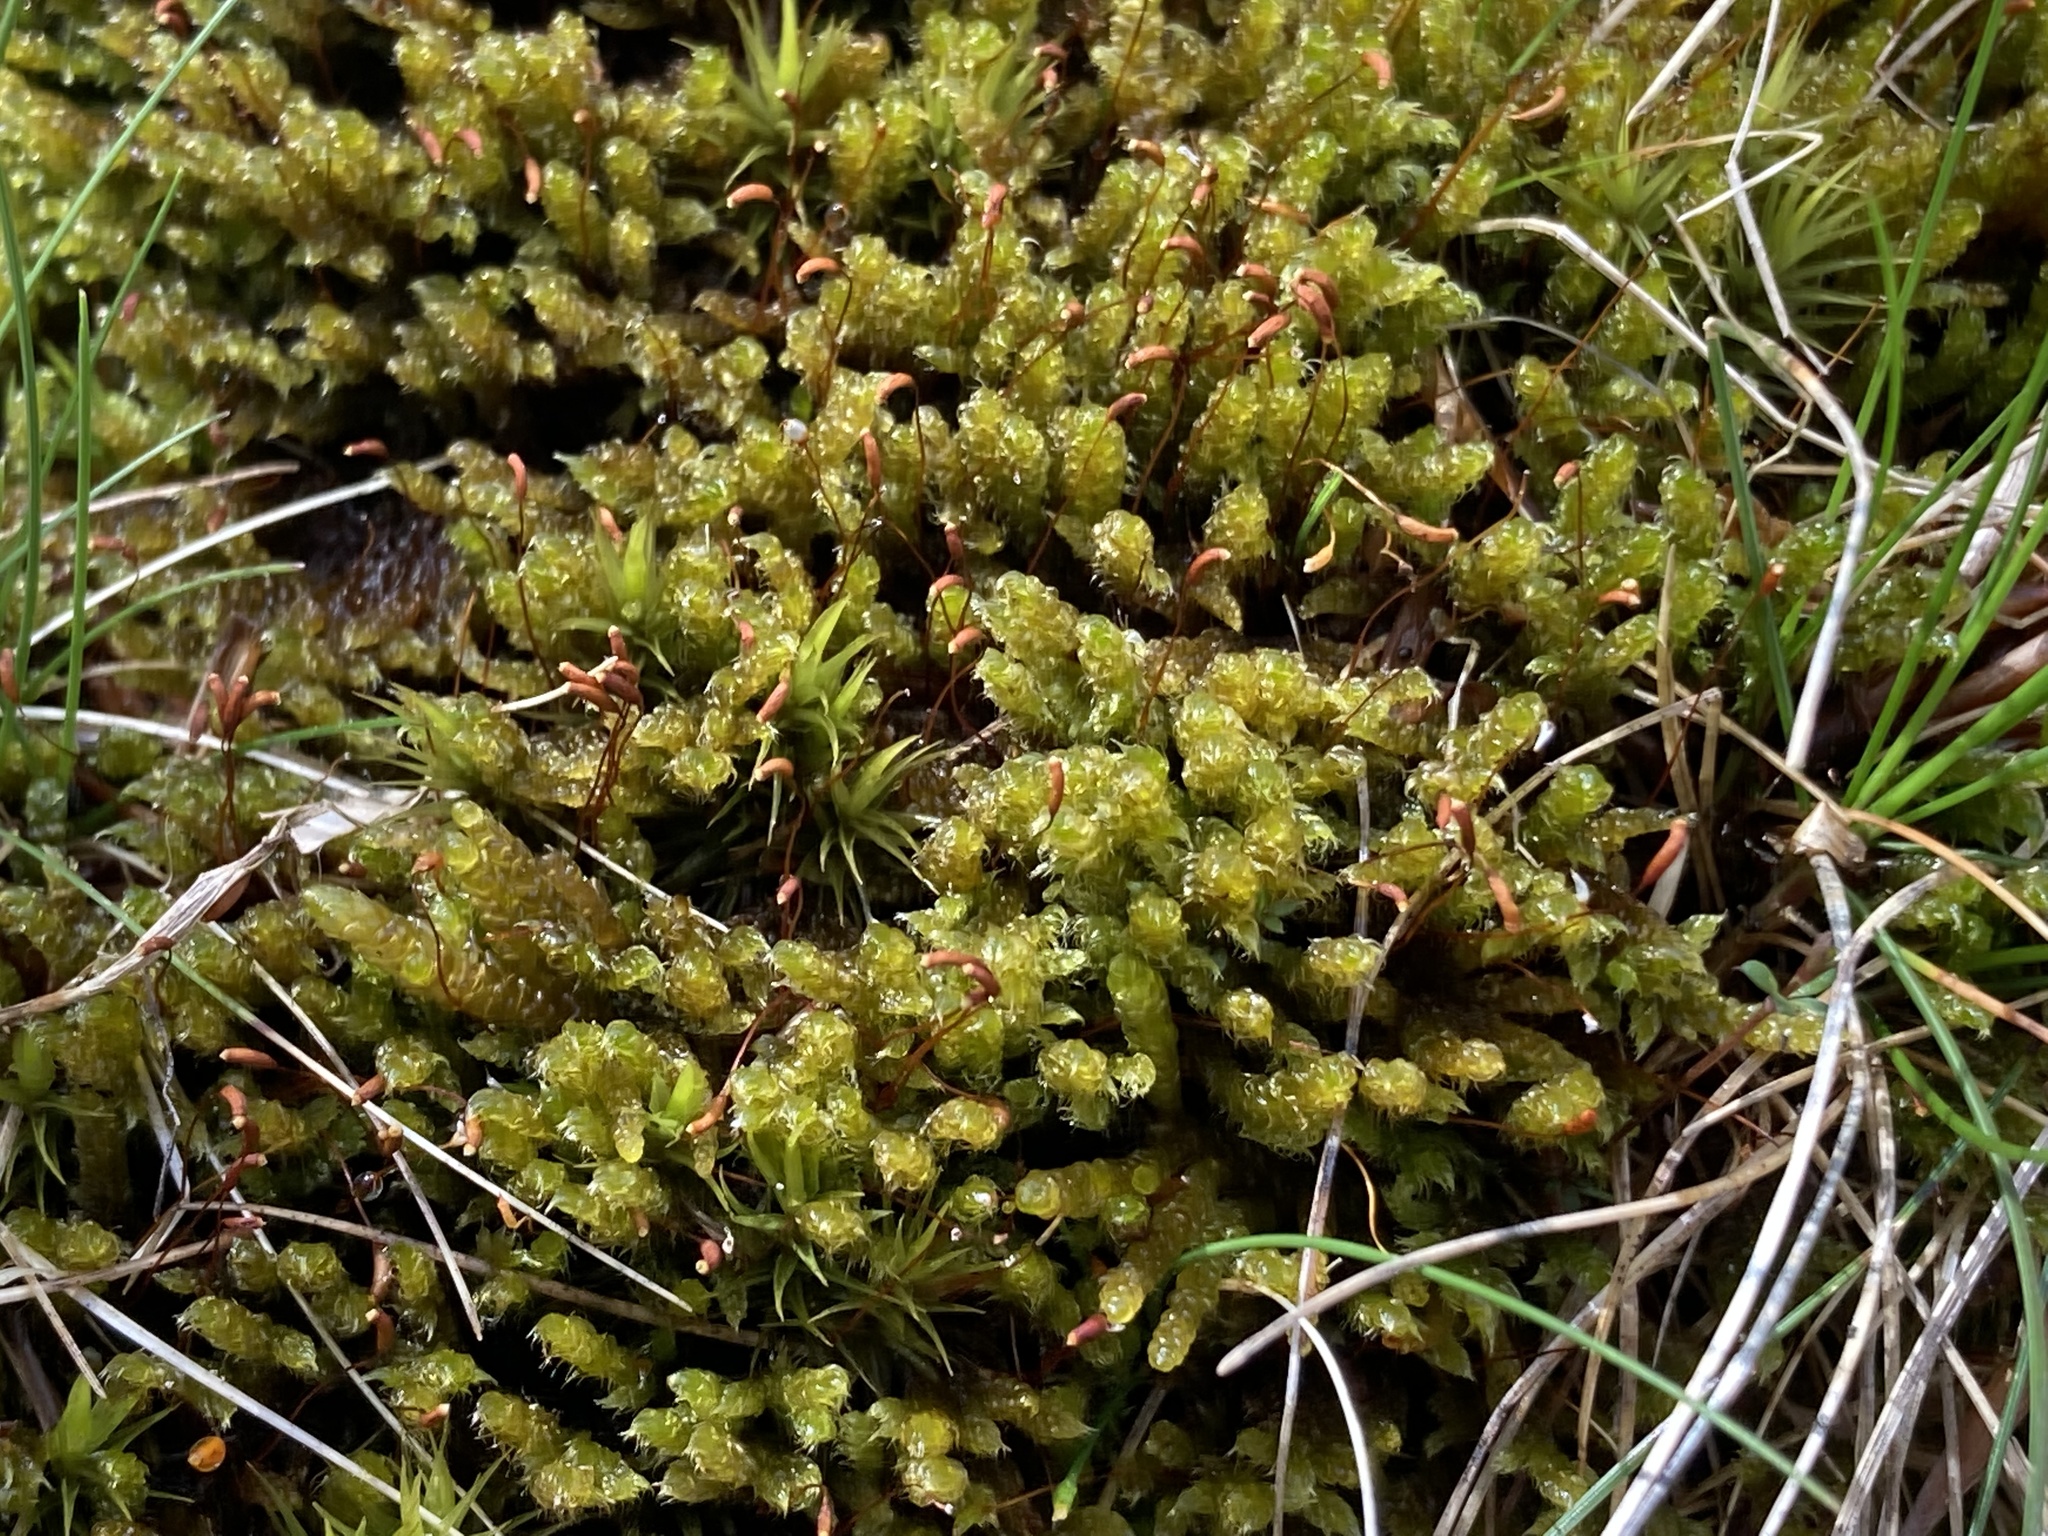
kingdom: Plantae
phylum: Bryophyta
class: Bryopsida
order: Hypnales
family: Hypnaceae
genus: Hypnum
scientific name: Hypnum cupressiforme
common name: Cypress-leaved plait-moss
